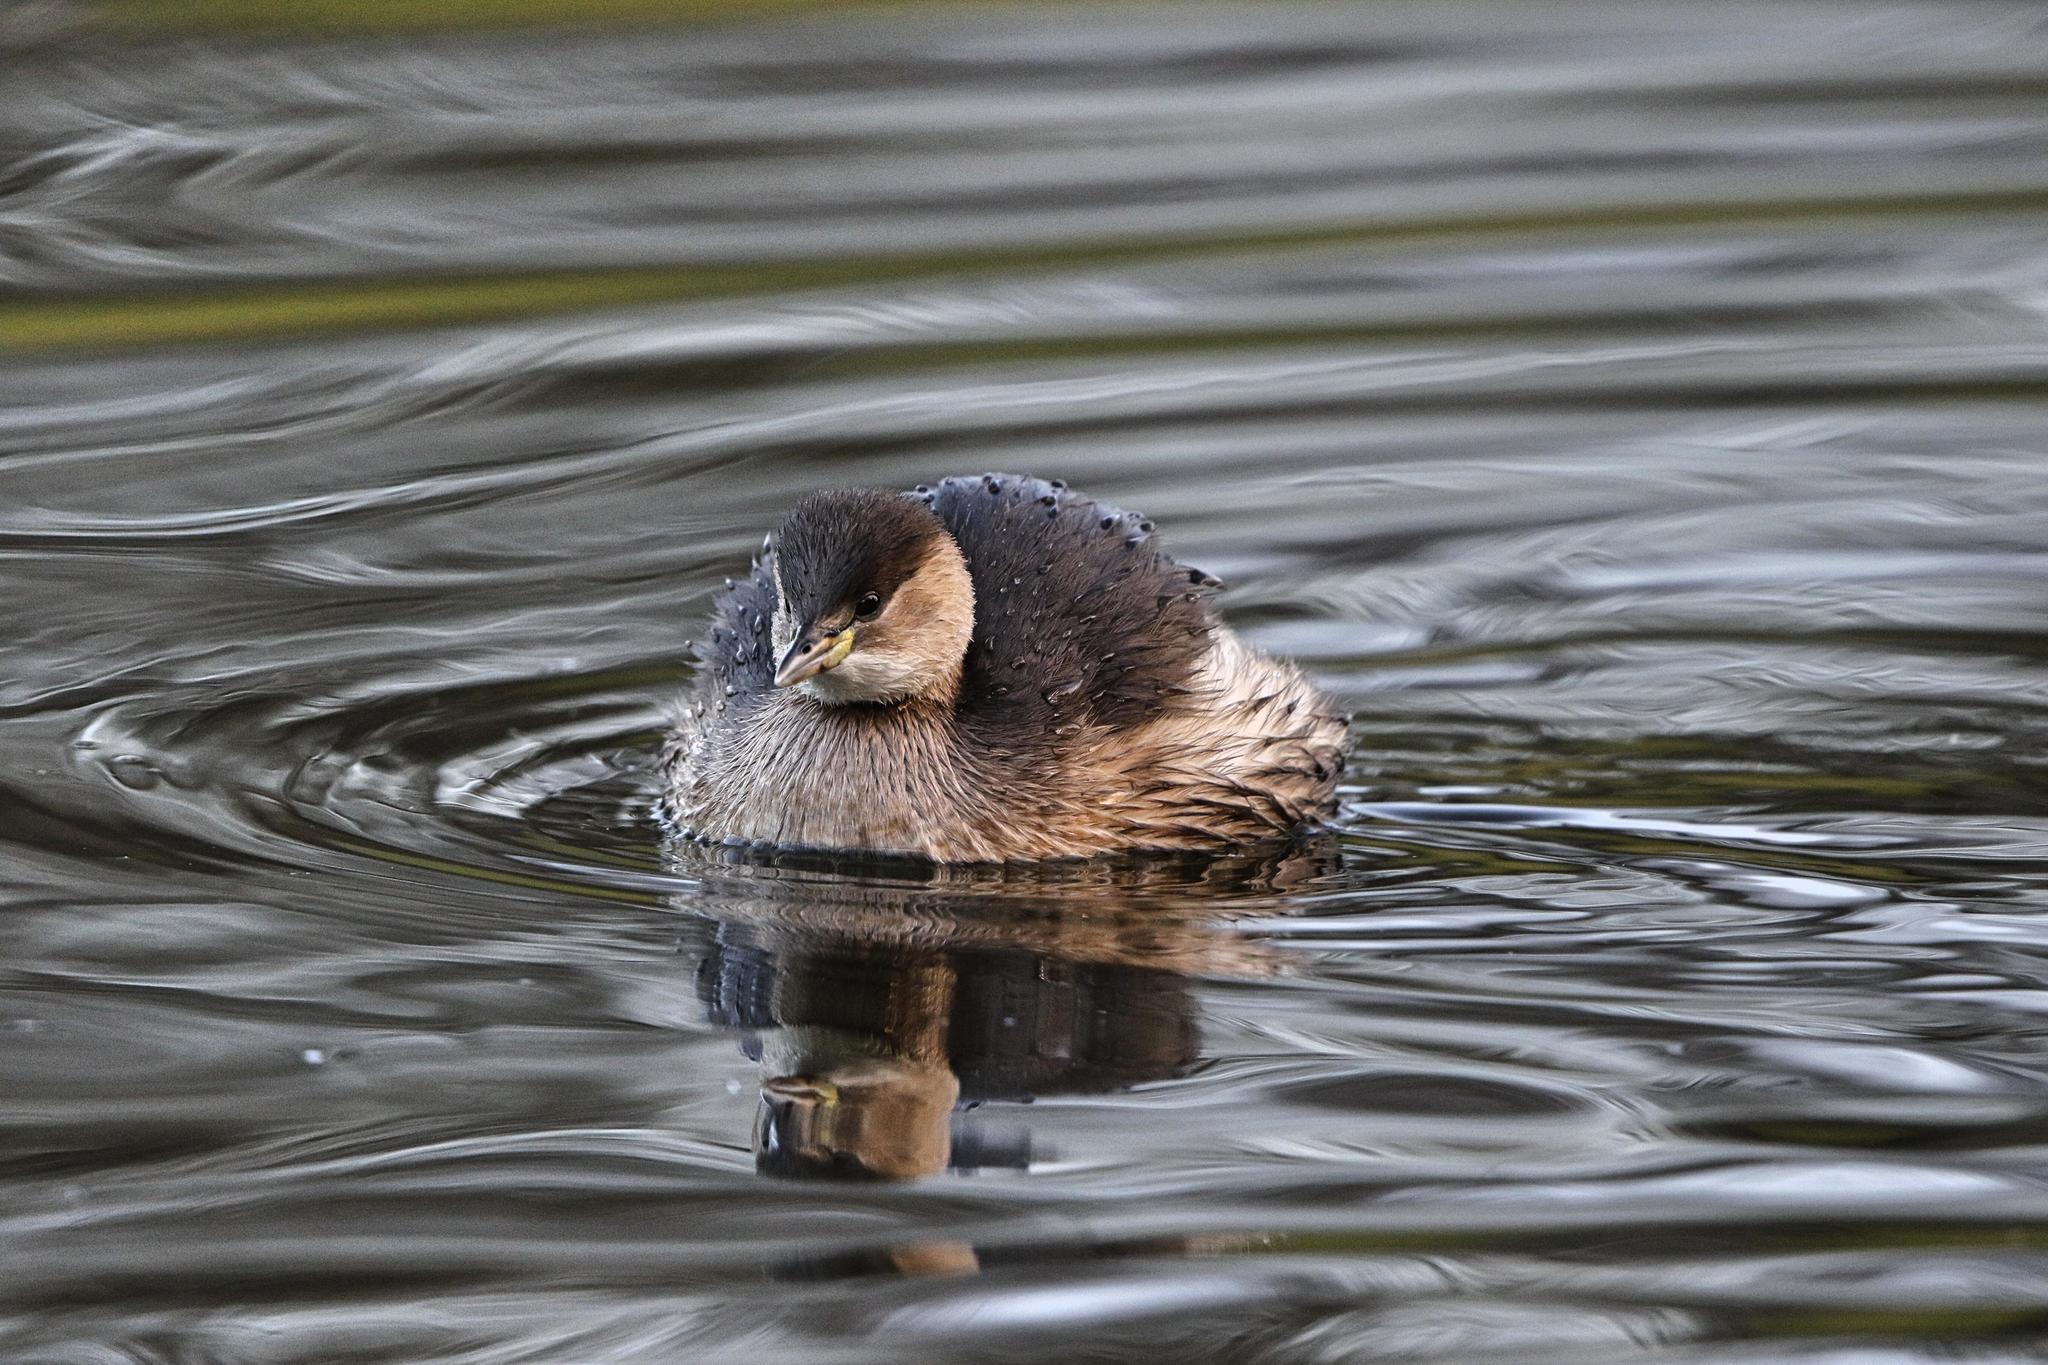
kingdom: Animalia
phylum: Chordata
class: Aves
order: Podicipediformes
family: Podicipedidae
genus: Tachybaptus
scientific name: Tachybaptus ruficollis
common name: Little grebe
